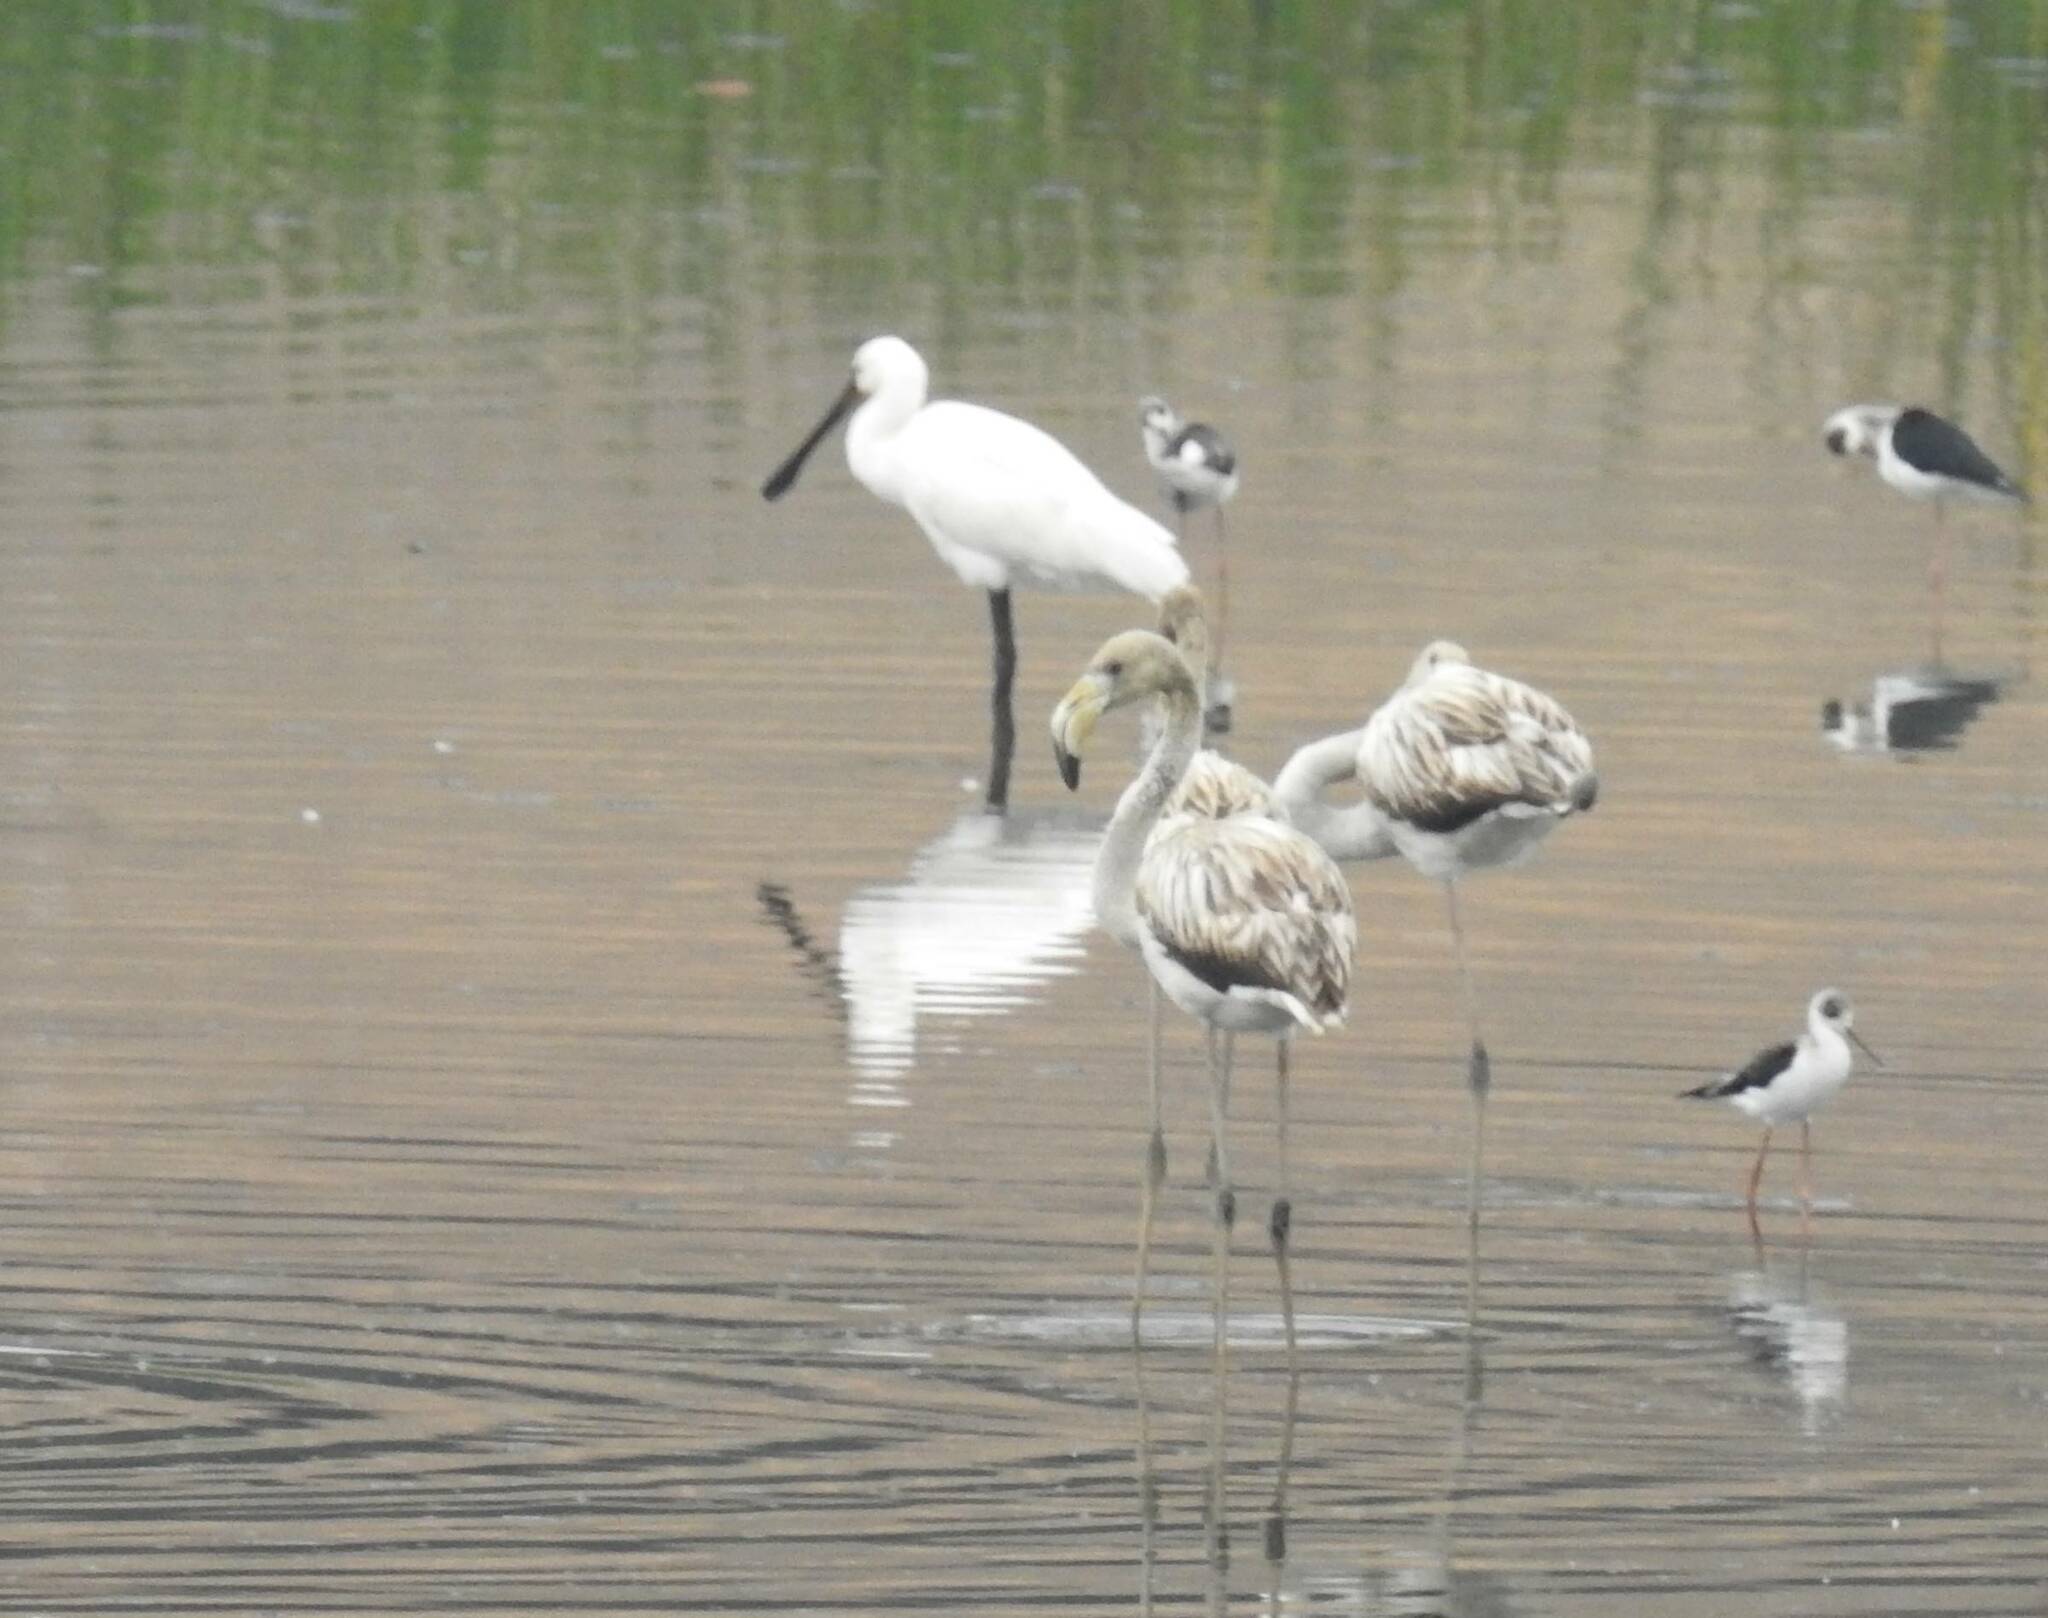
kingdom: Animalia
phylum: Chordata
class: Aves
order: Phoenicopteriformes
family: Phoenicopteridae
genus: Phoenicopterus
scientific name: Phoenicopterus roseus
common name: Greater flamingo
